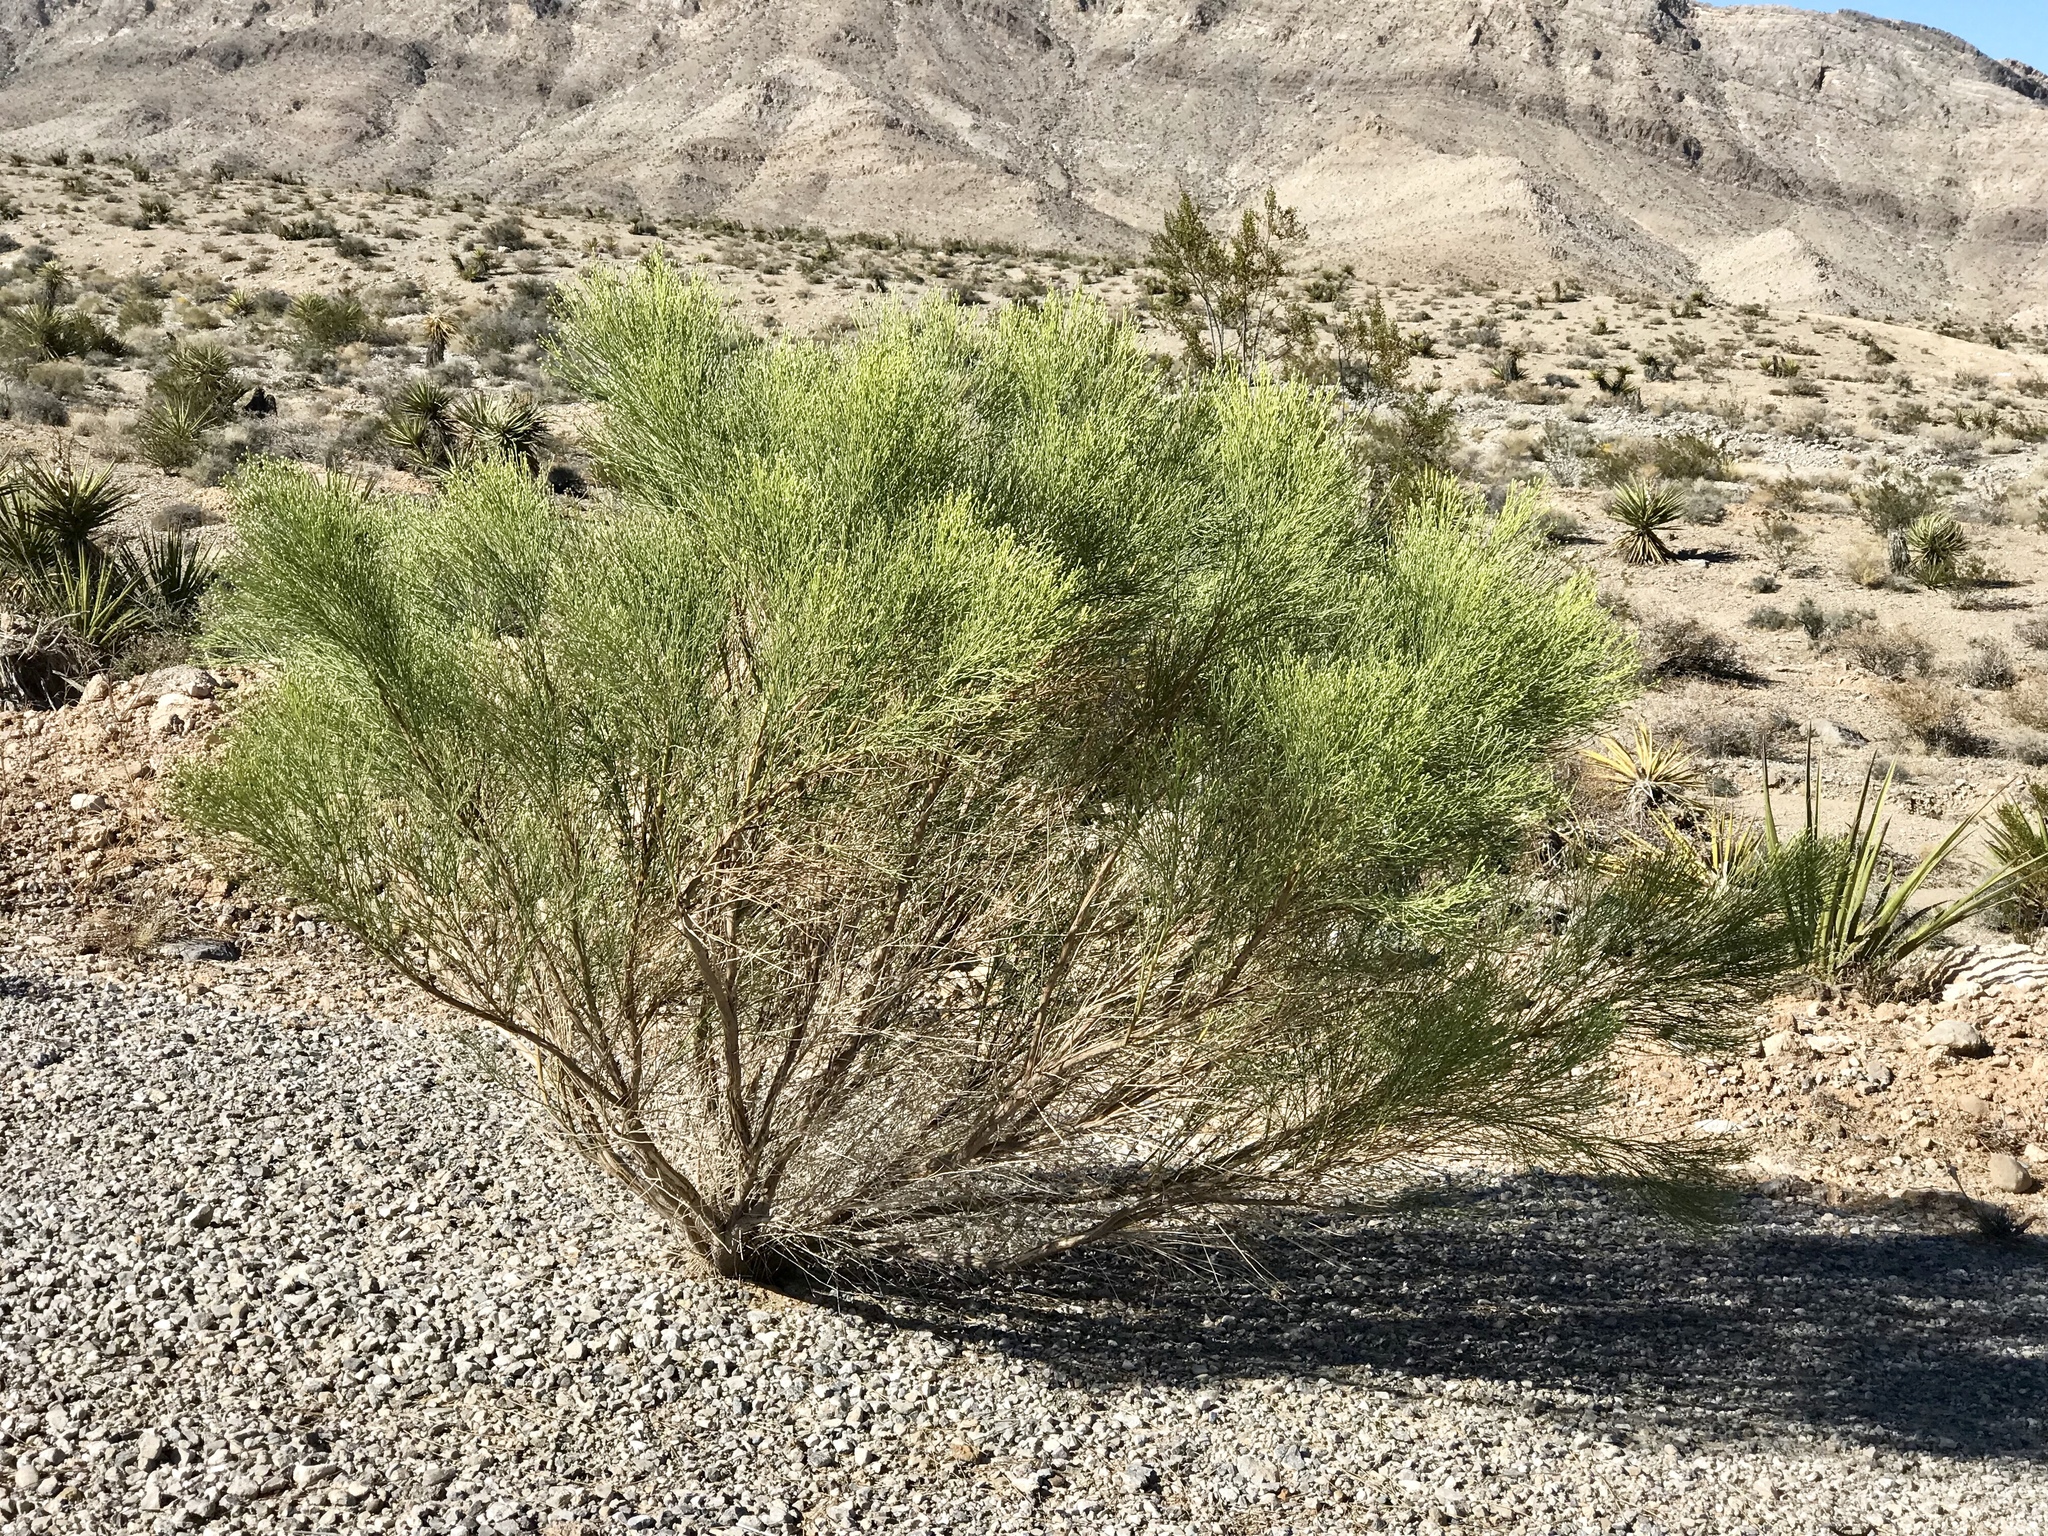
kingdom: Plantae
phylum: Tracheophyta
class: Magnoliopsida
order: Asterales
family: Asteraceae
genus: Baccharis
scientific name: Baccharis sarothroides
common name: Desert-broom
